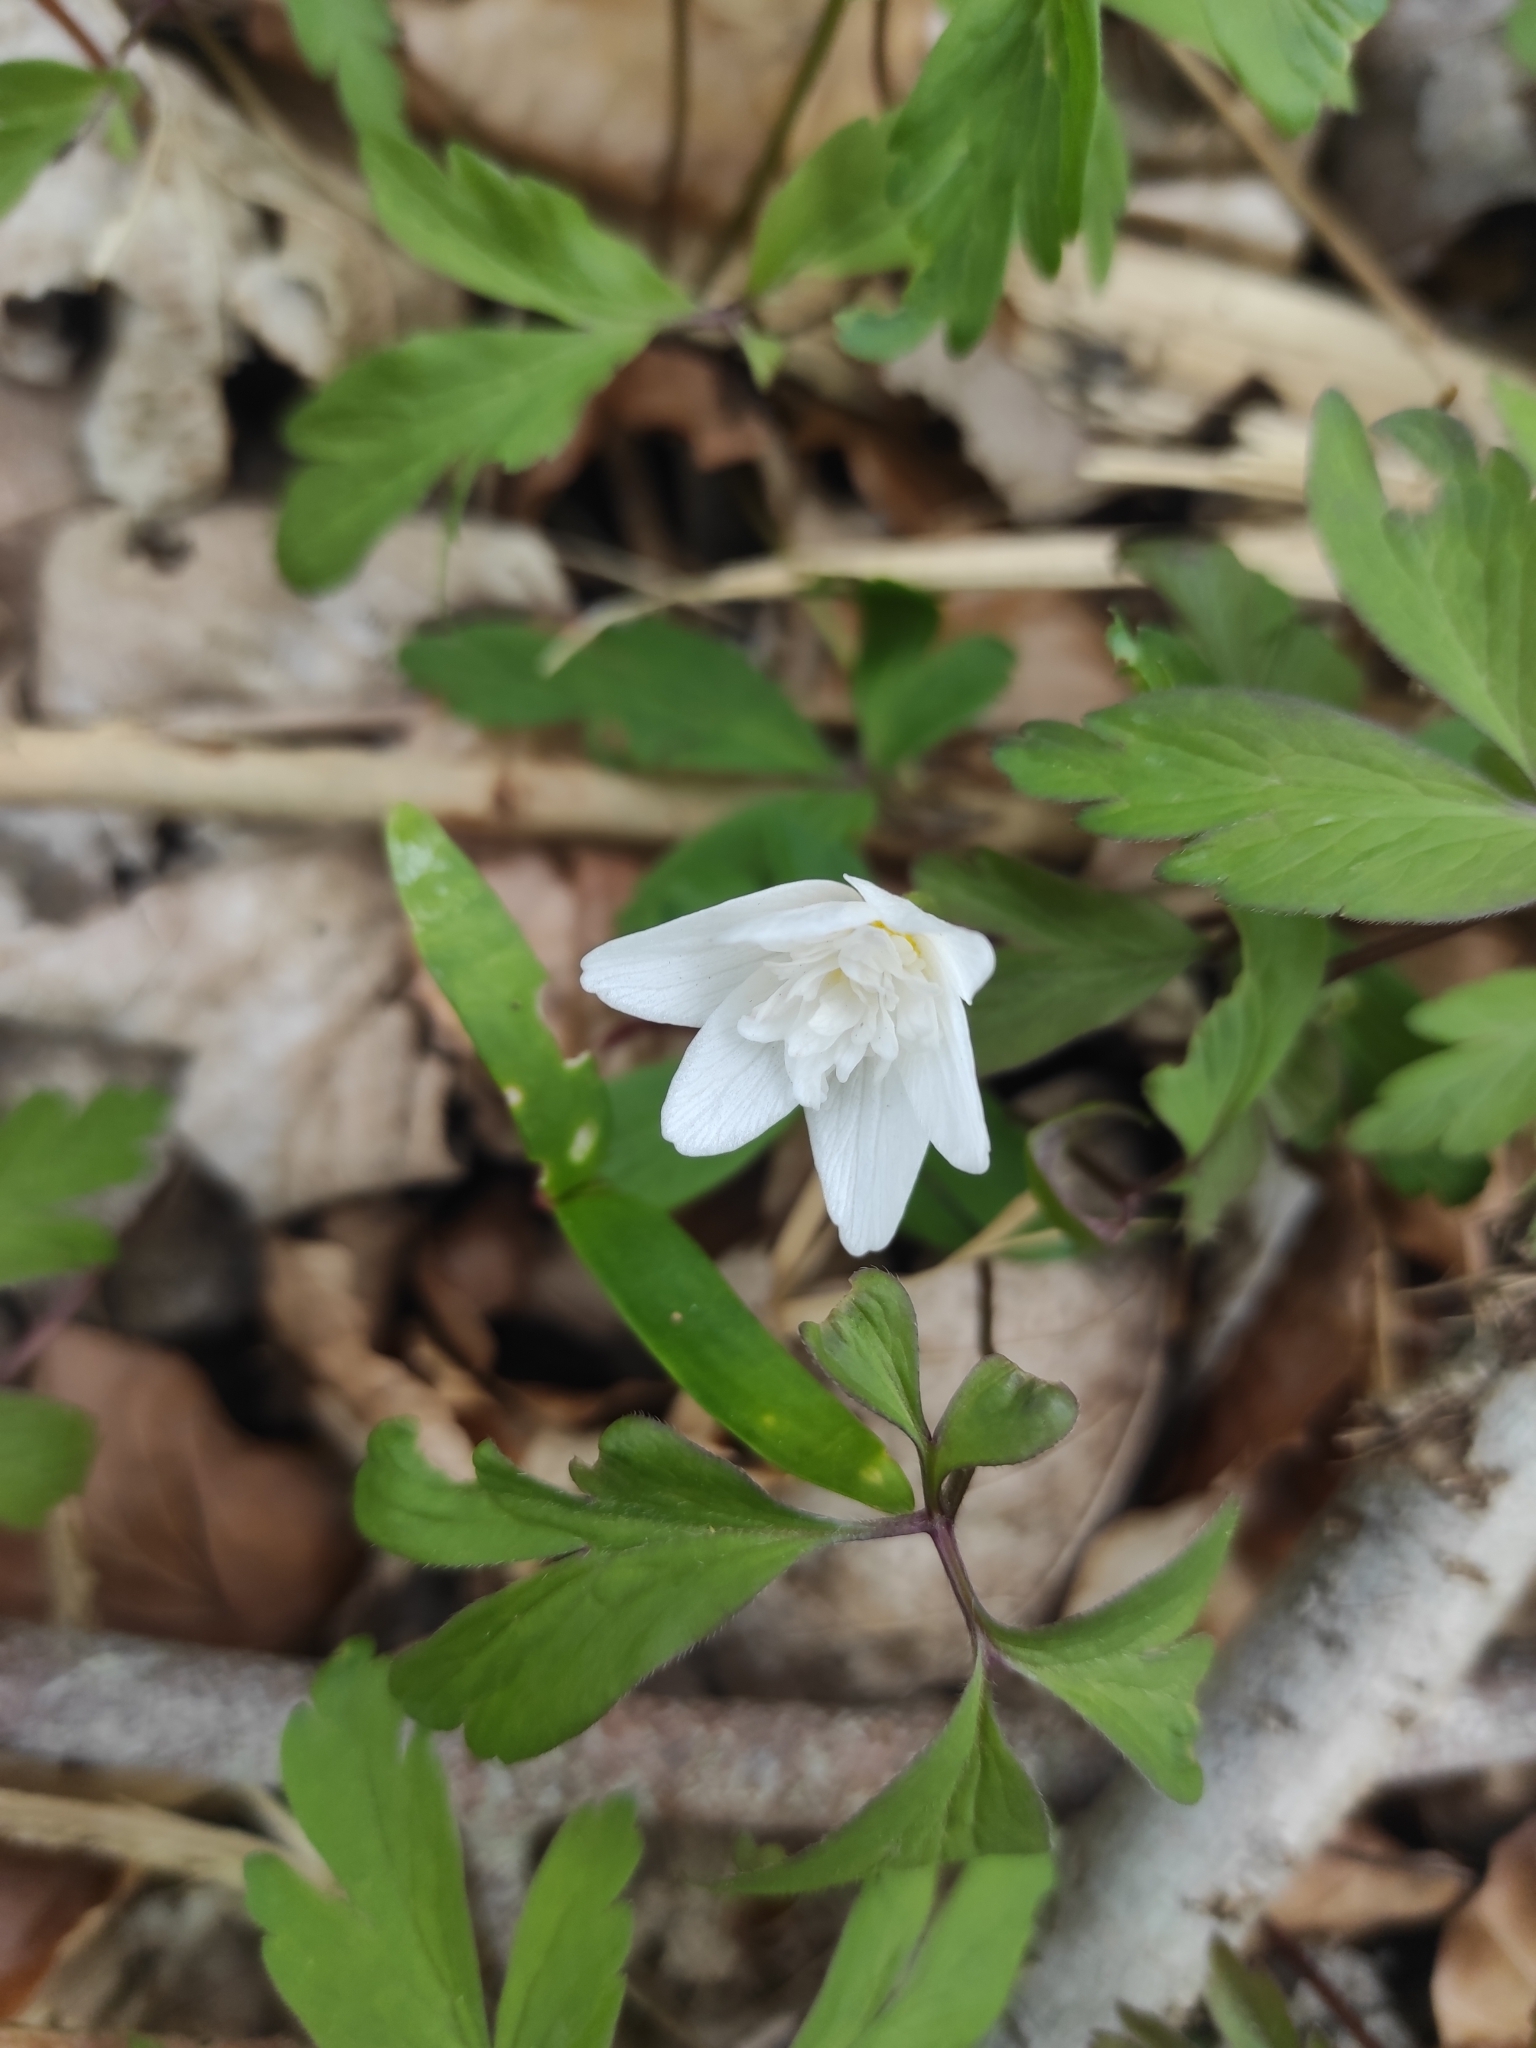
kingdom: Plantae
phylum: Tracheophyta
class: Magnoliopsida
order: Ranunculales
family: Ranunculaceae
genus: Anemone
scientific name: Anemone nemorosa
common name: Wood anemone
